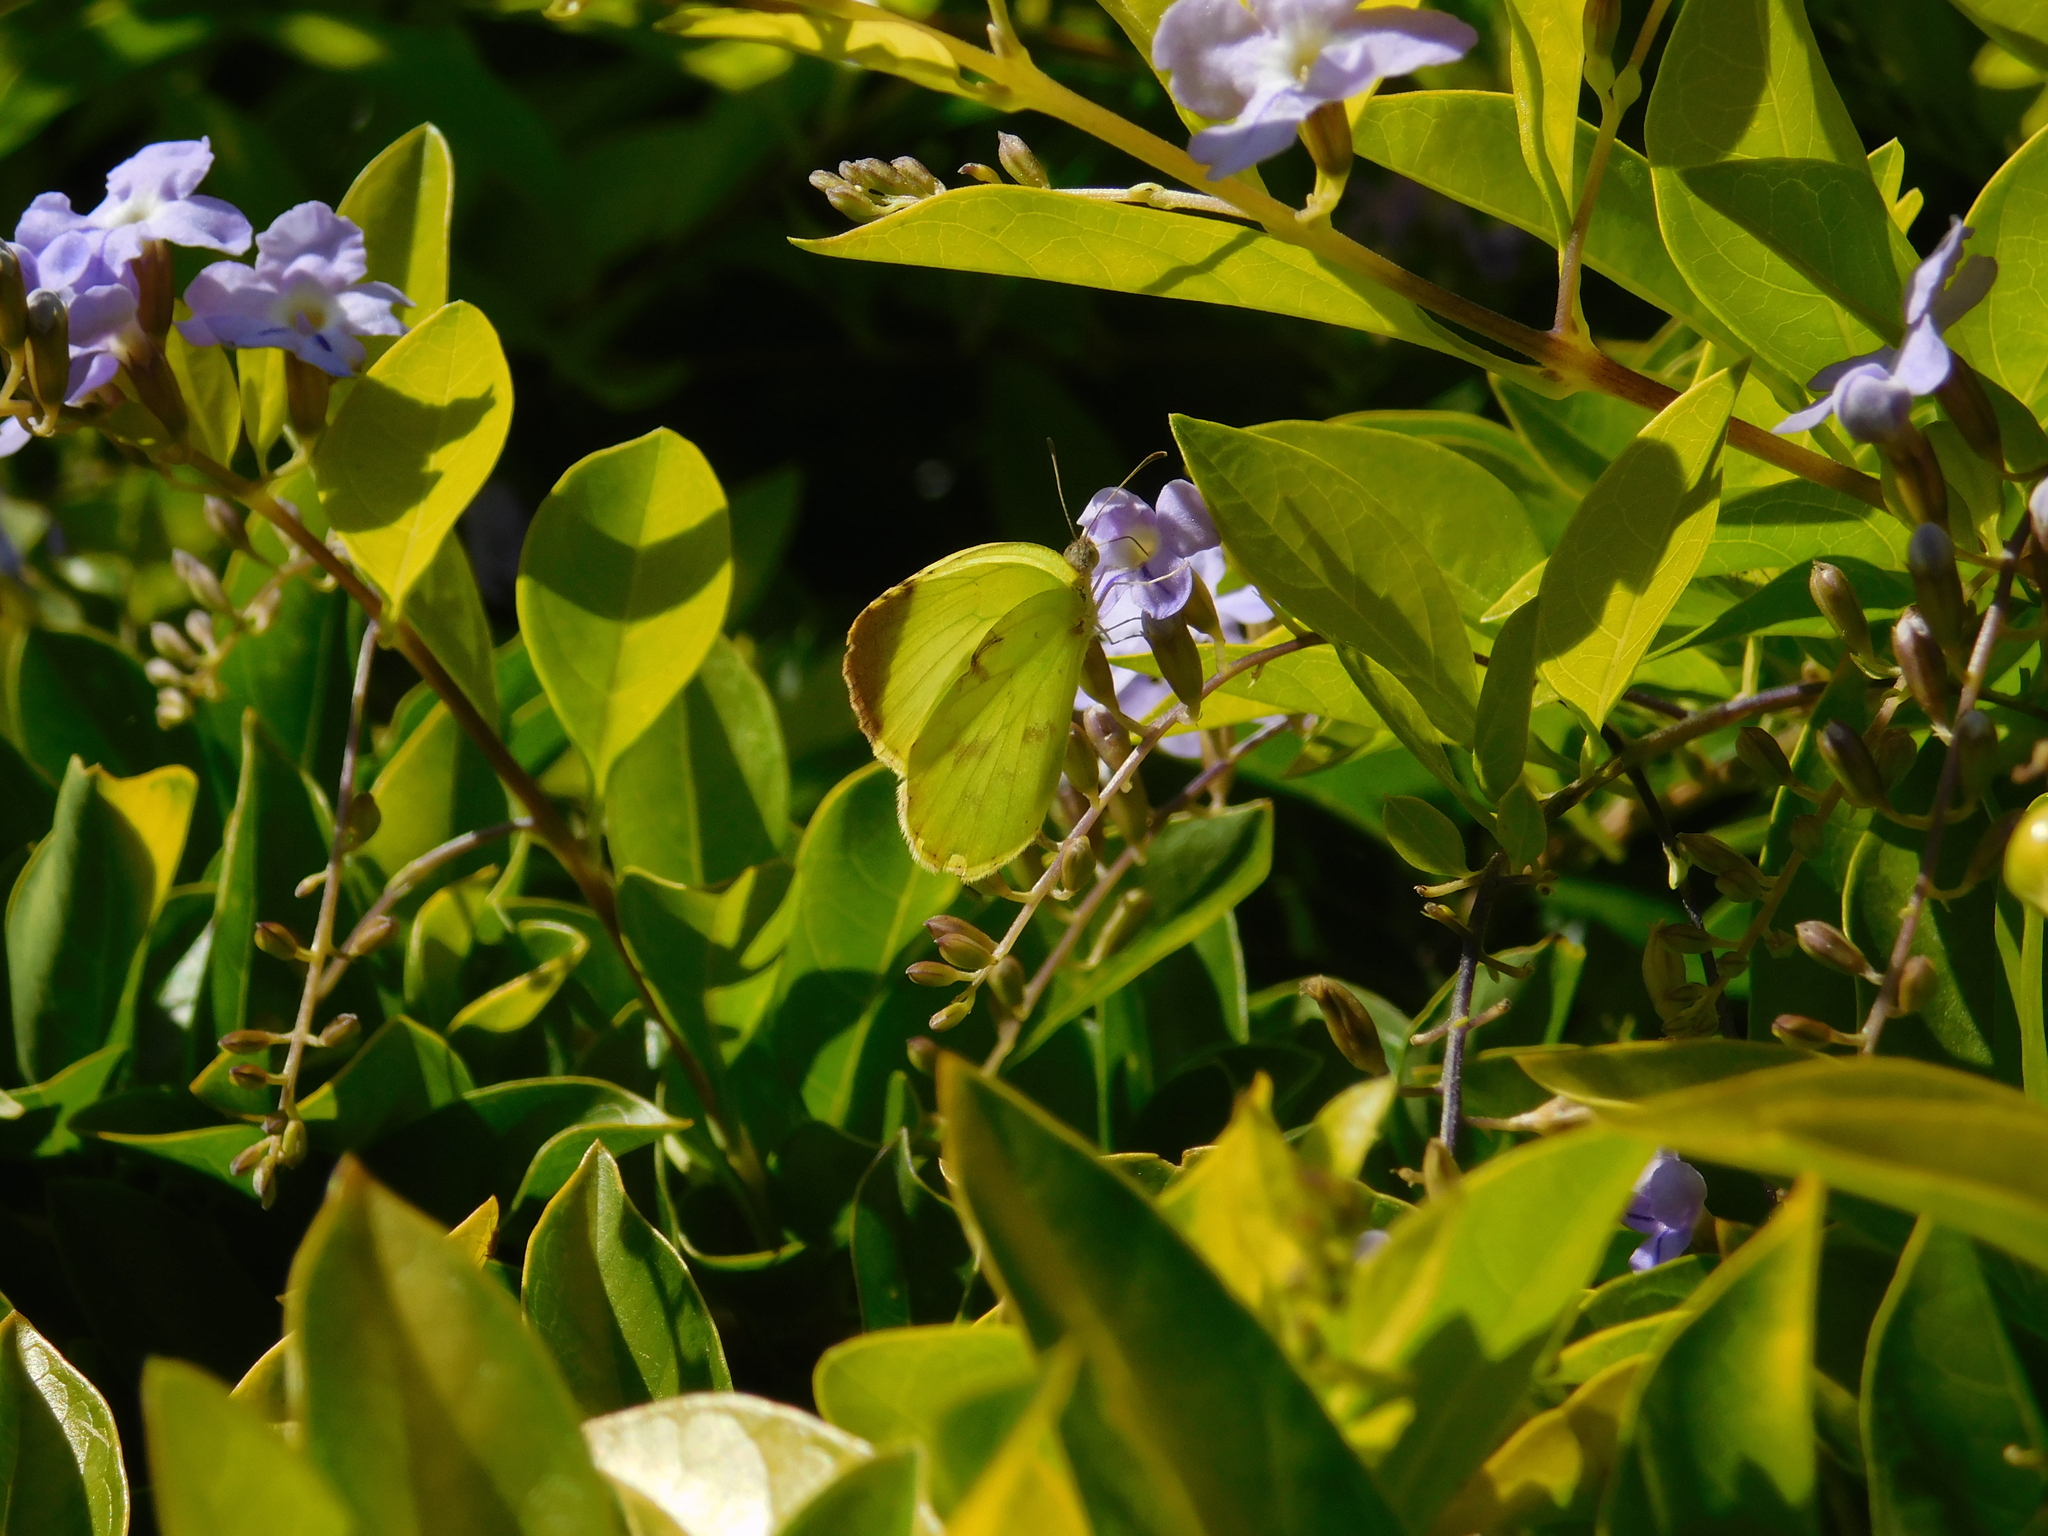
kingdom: Animalia
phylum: Arthropoda
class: Insecta
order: Lepidoptera
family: Pieridae
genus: Teriocolias
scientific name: Teriocolias
